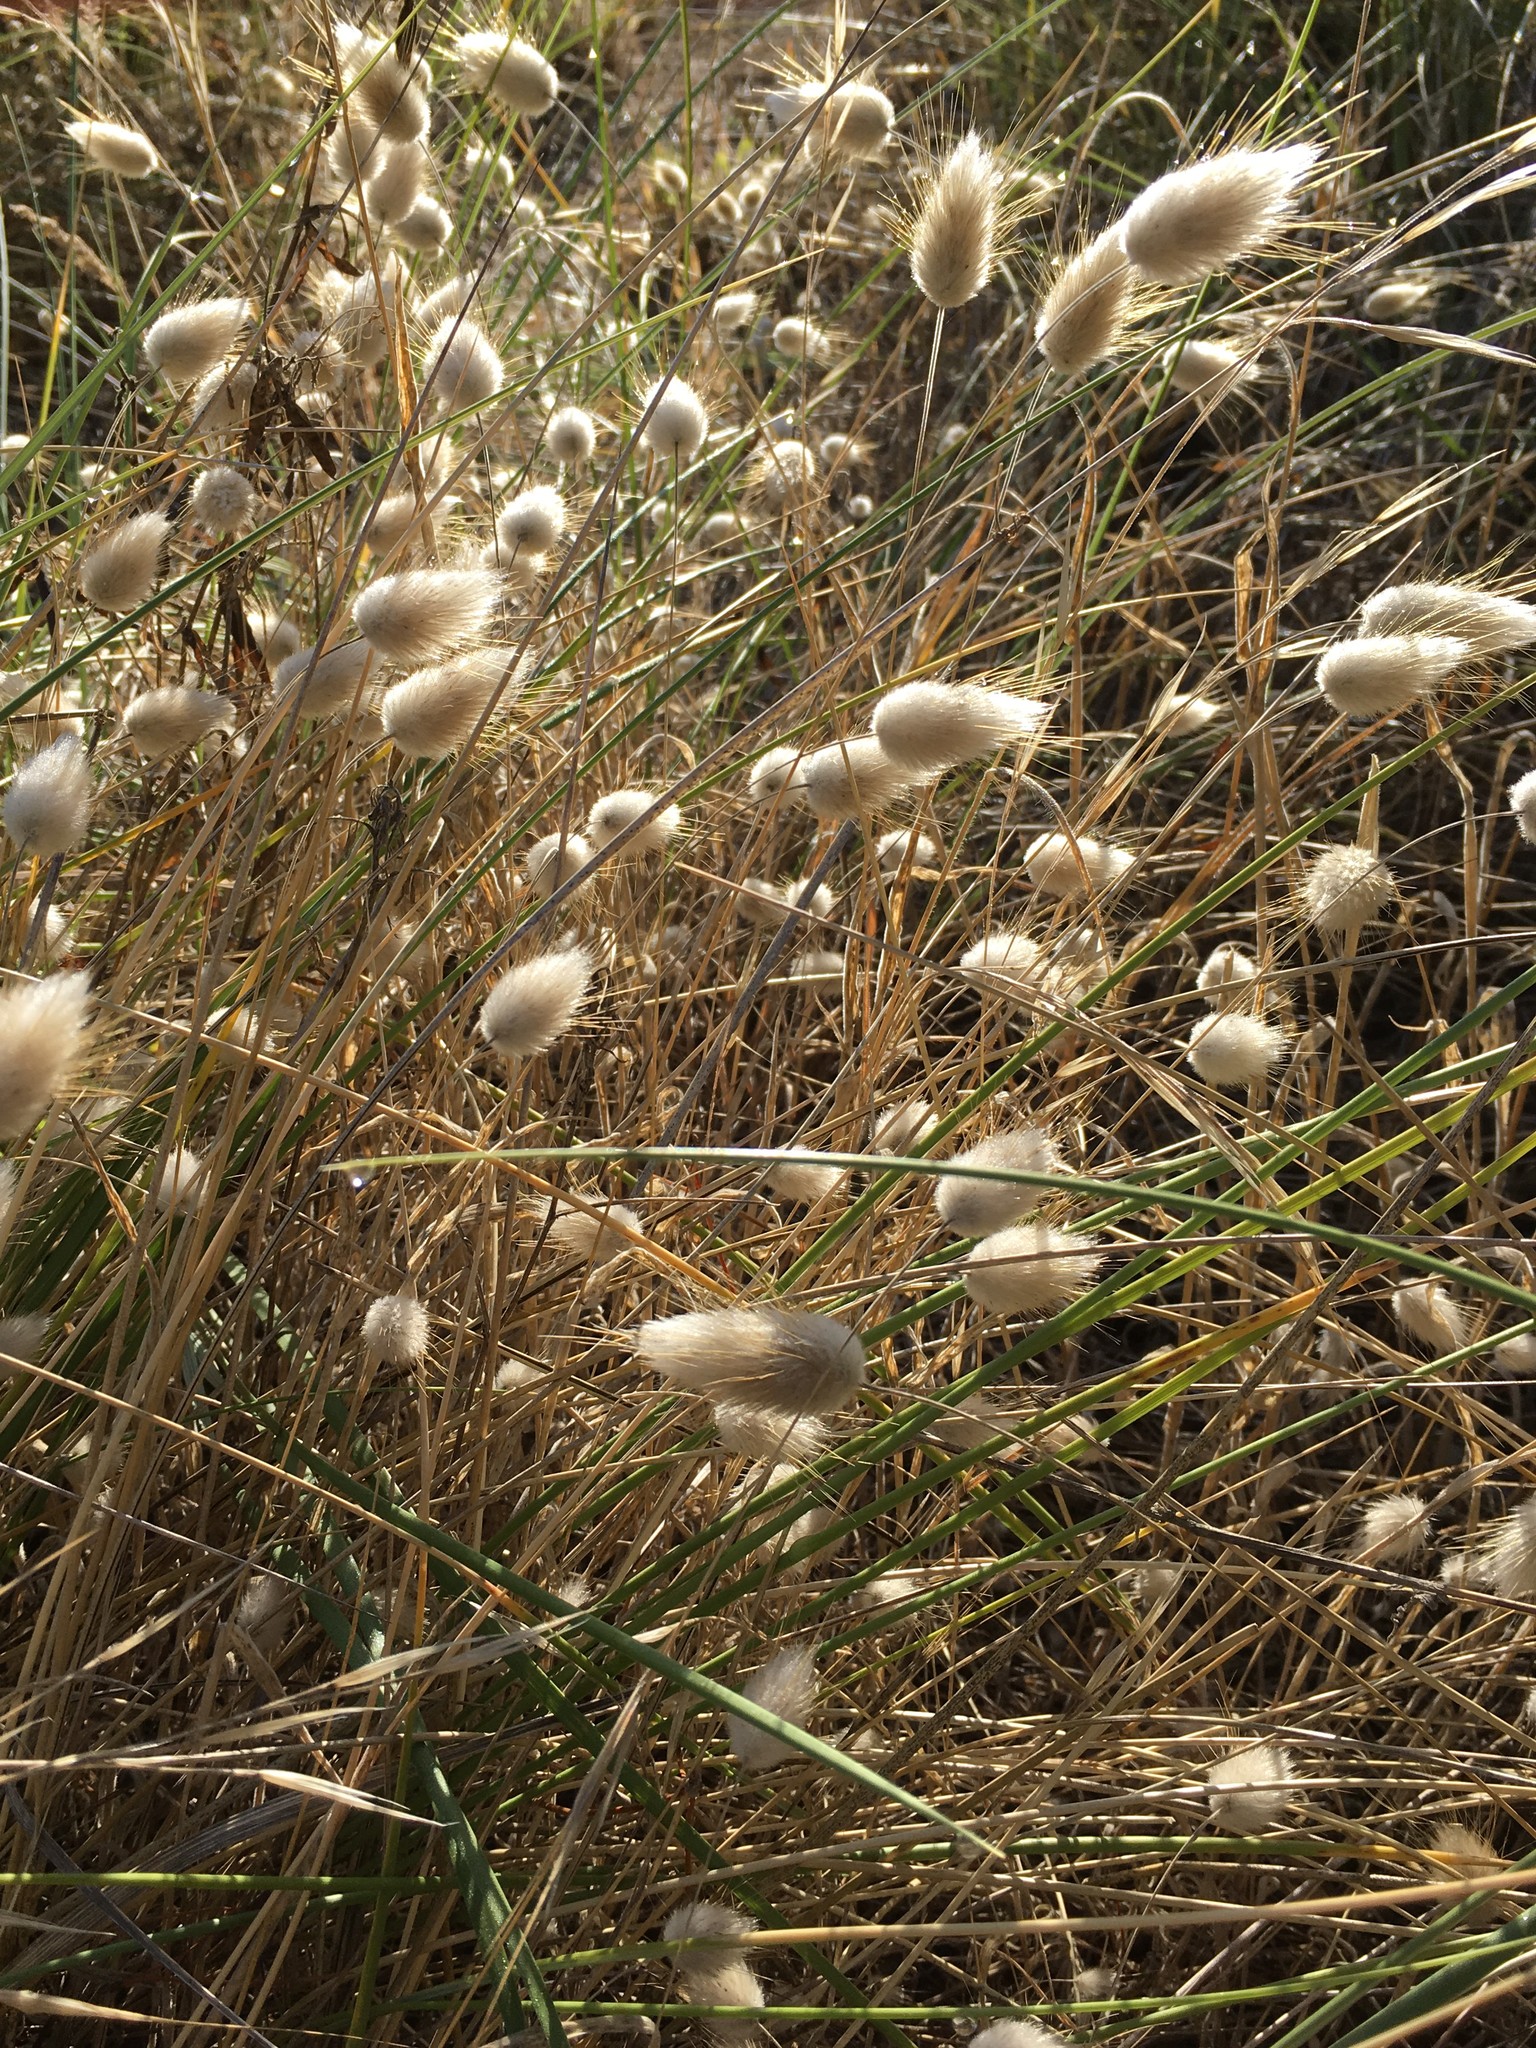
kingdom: Plantae
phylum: Tracheophyta
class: Liliopsida
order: Poales
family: Poaceae
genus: Lagurus
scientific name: Lagurus ovatus
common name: Hare's-tail
